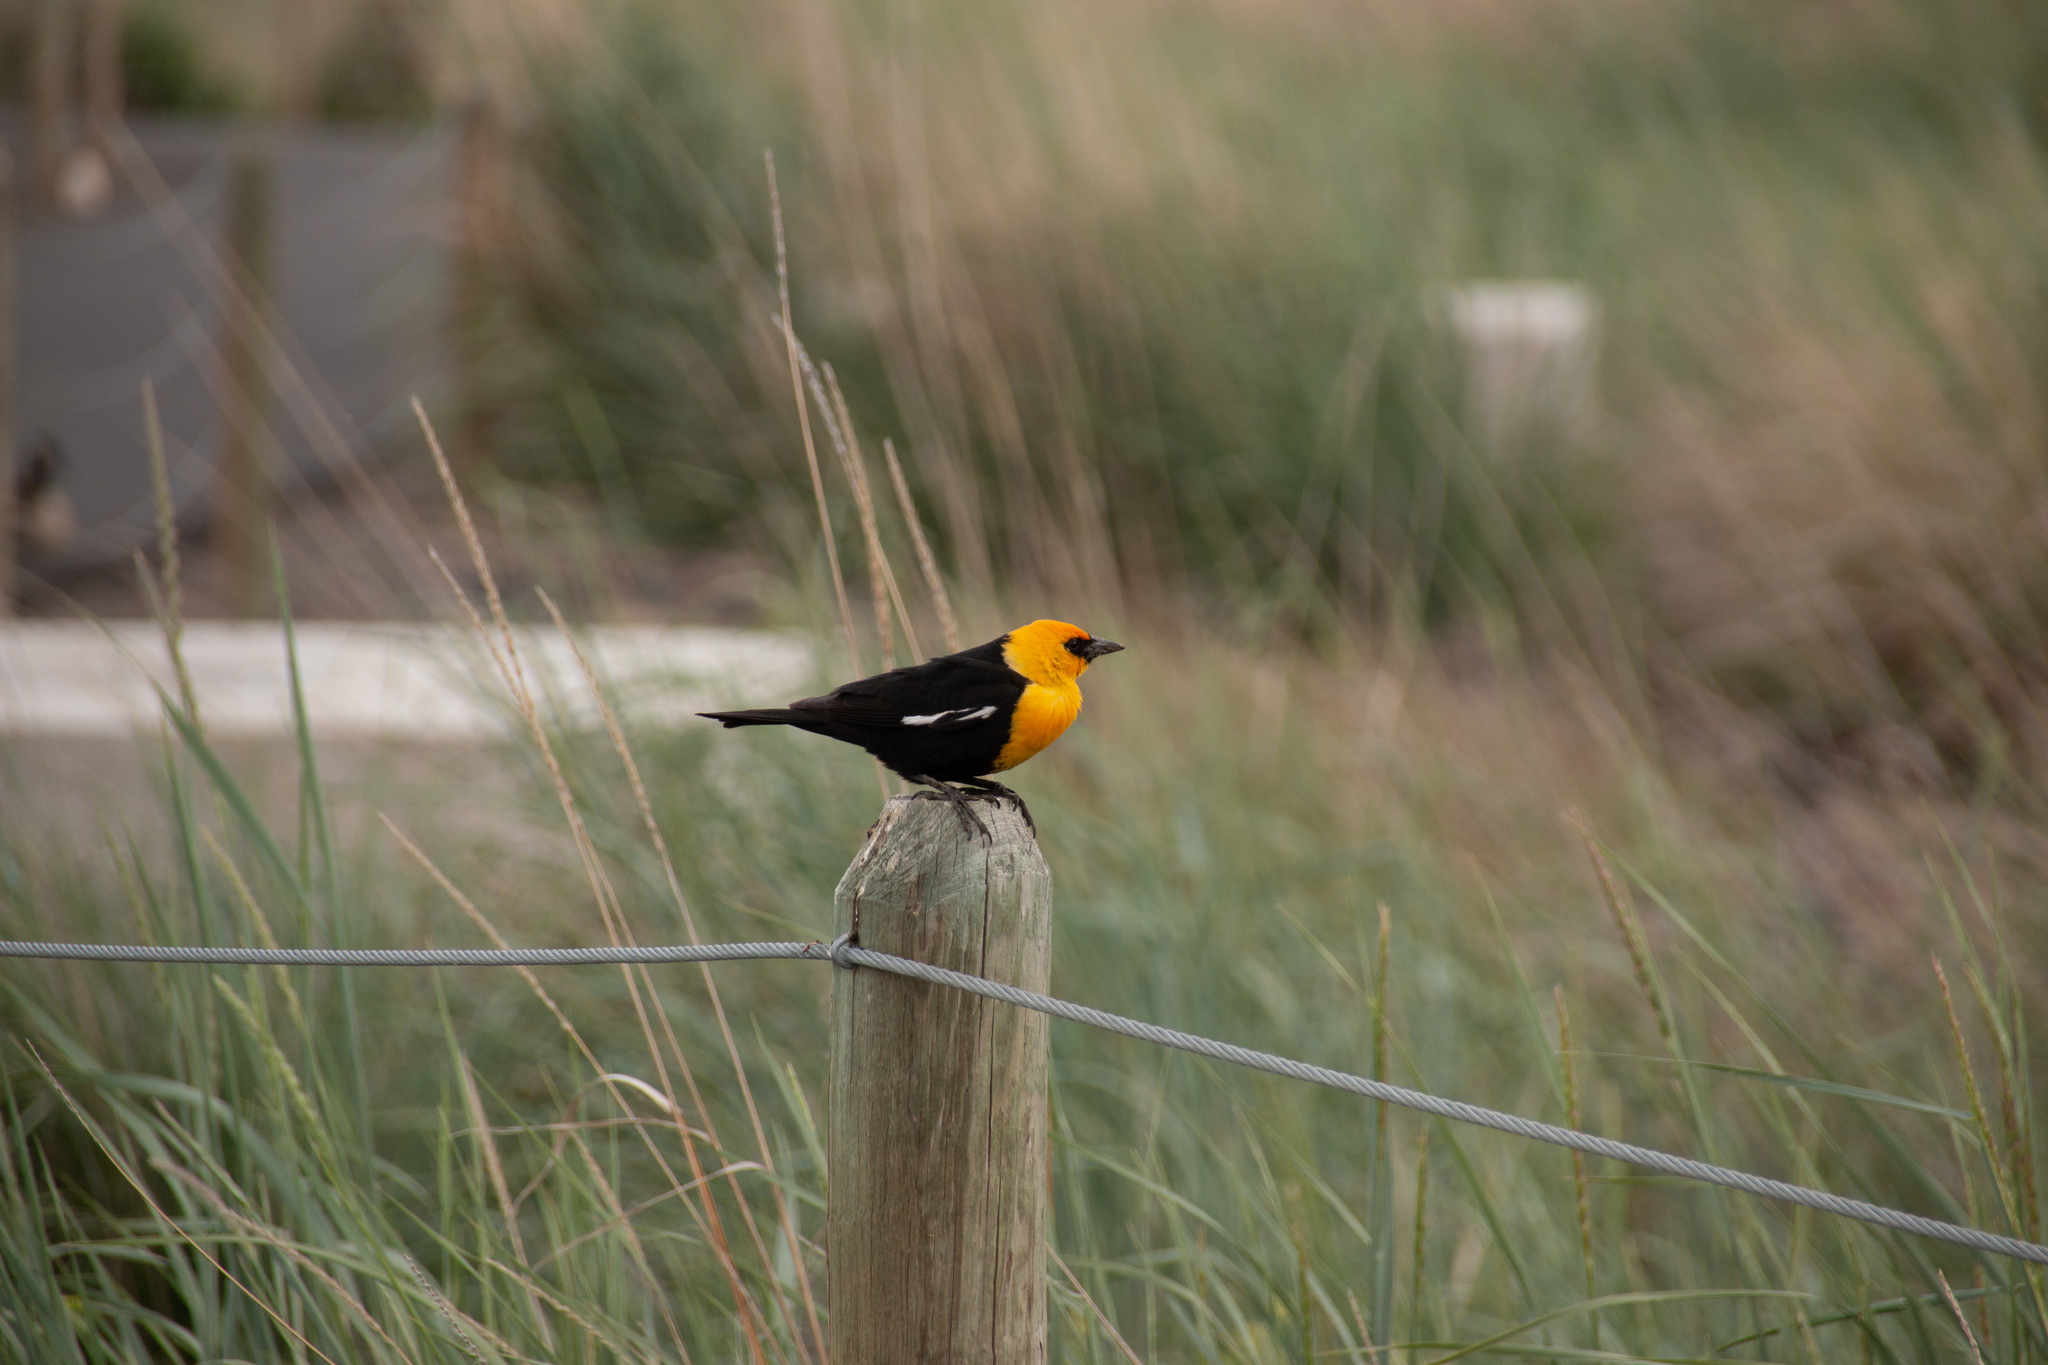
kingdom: Animalia
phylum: Chordata
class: Aves
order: Passeriformes
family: Icteridae
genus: Xanthocephalus
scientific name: Xanthocephalus xanthocephalus
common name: Yellow-headed blackbird
